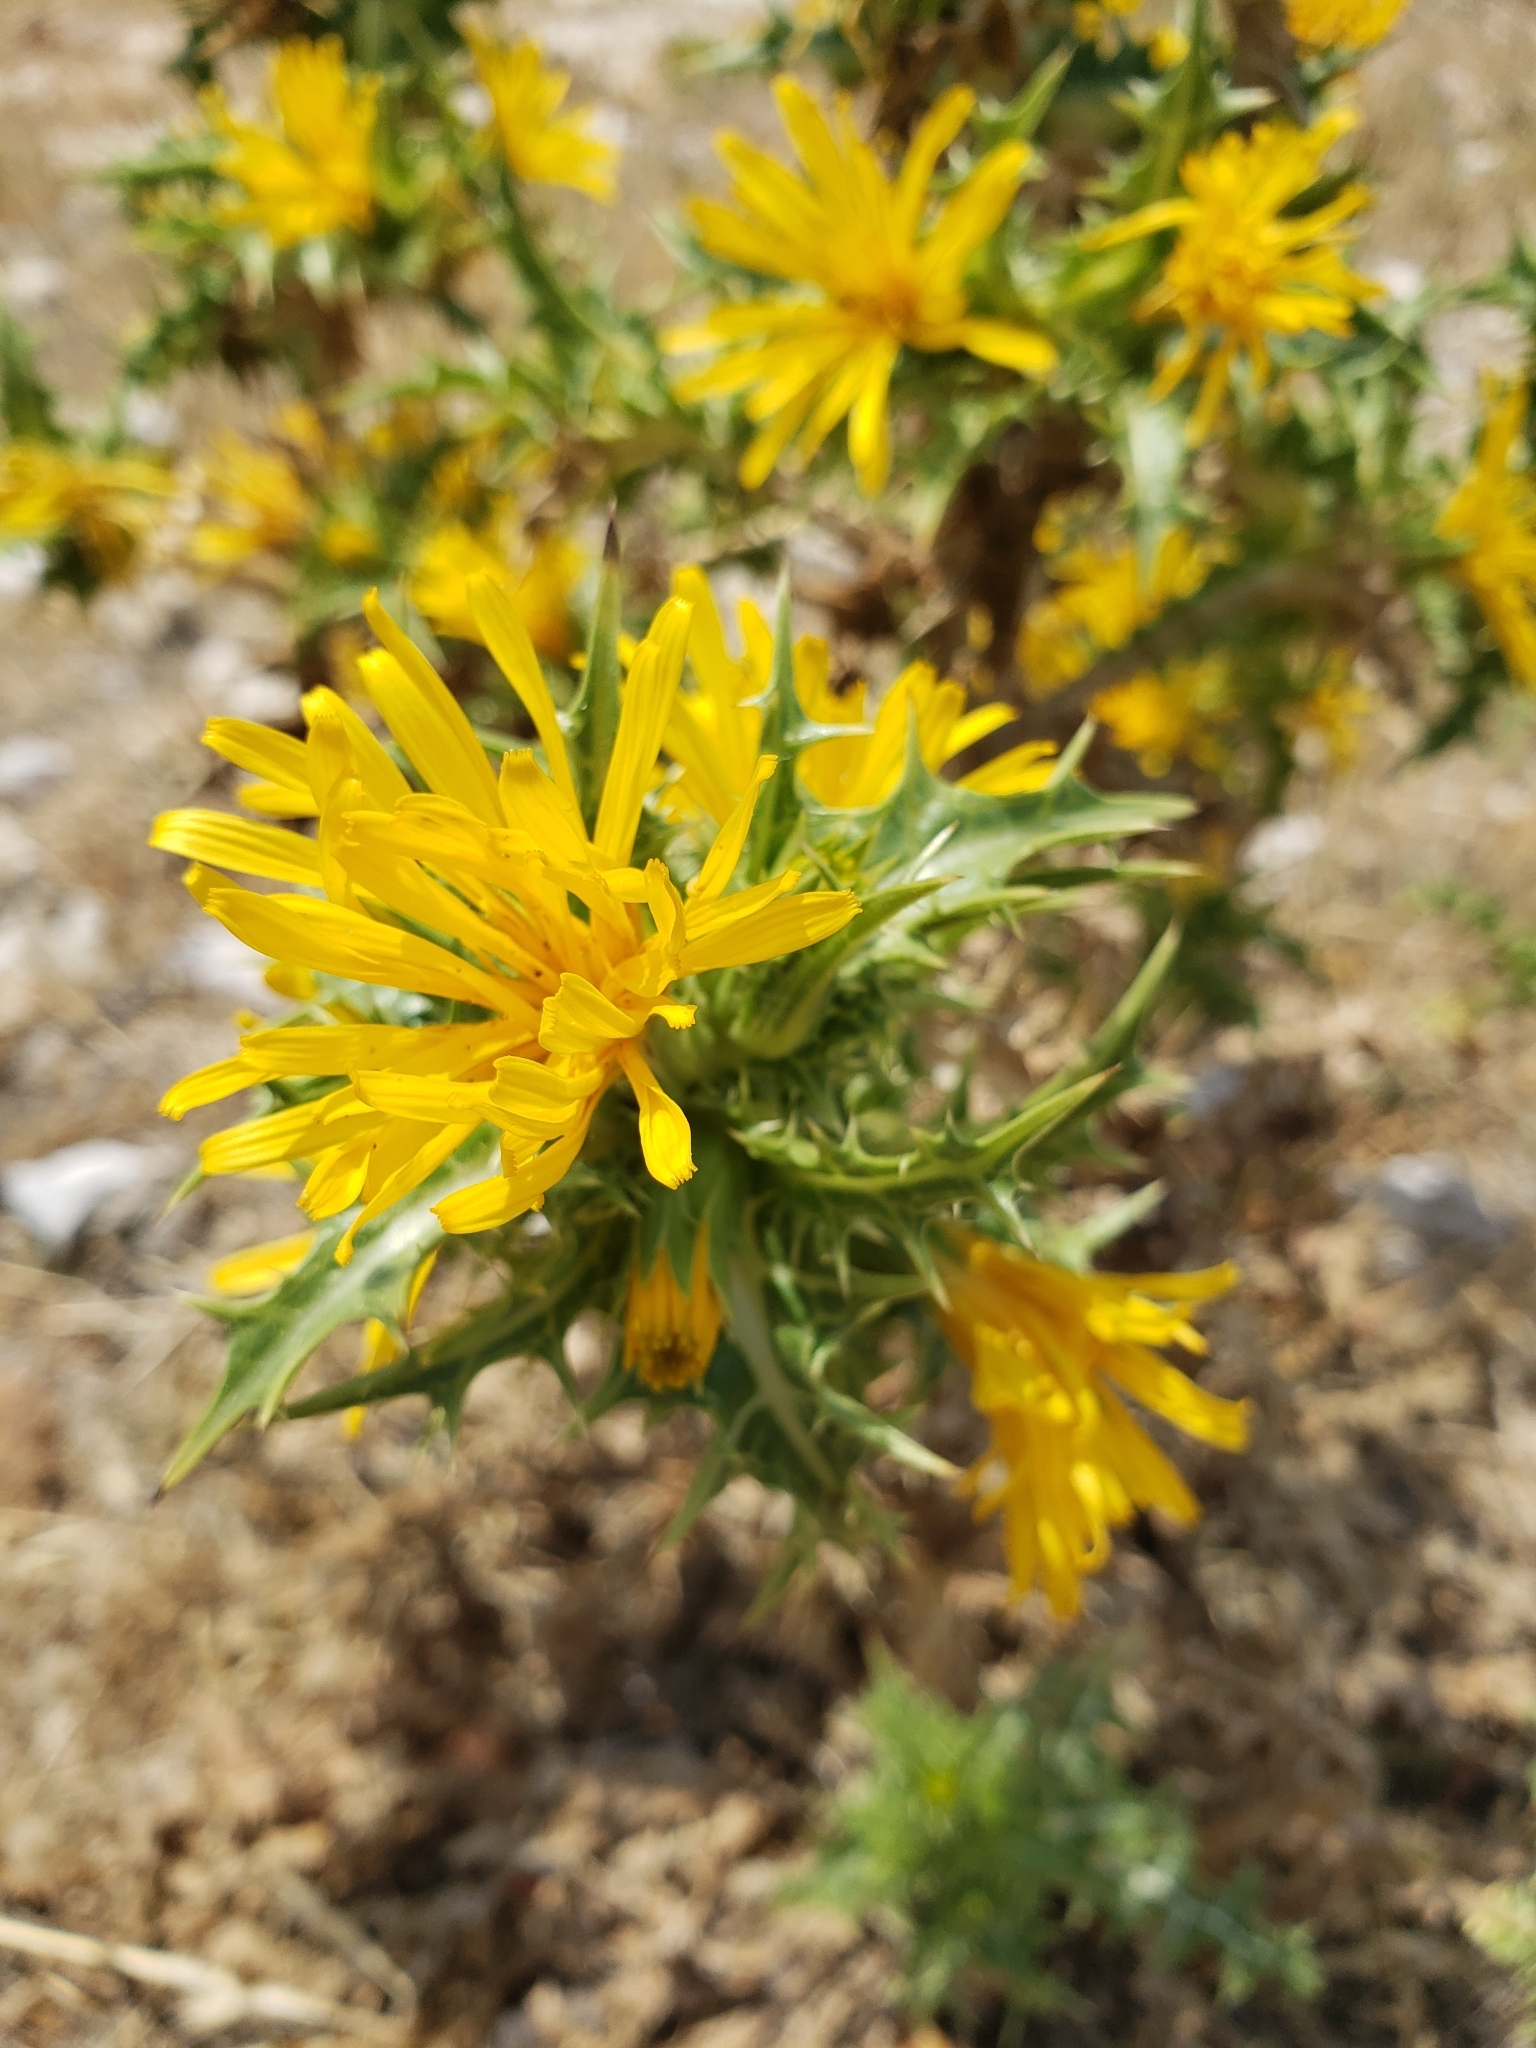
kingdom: Plantae
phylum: Tracheophyta
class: Magnoliopsida
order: Asterales
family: Asteraceae
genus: Scolymus
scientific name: Scolymus hispanicus
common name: Golden thistle
